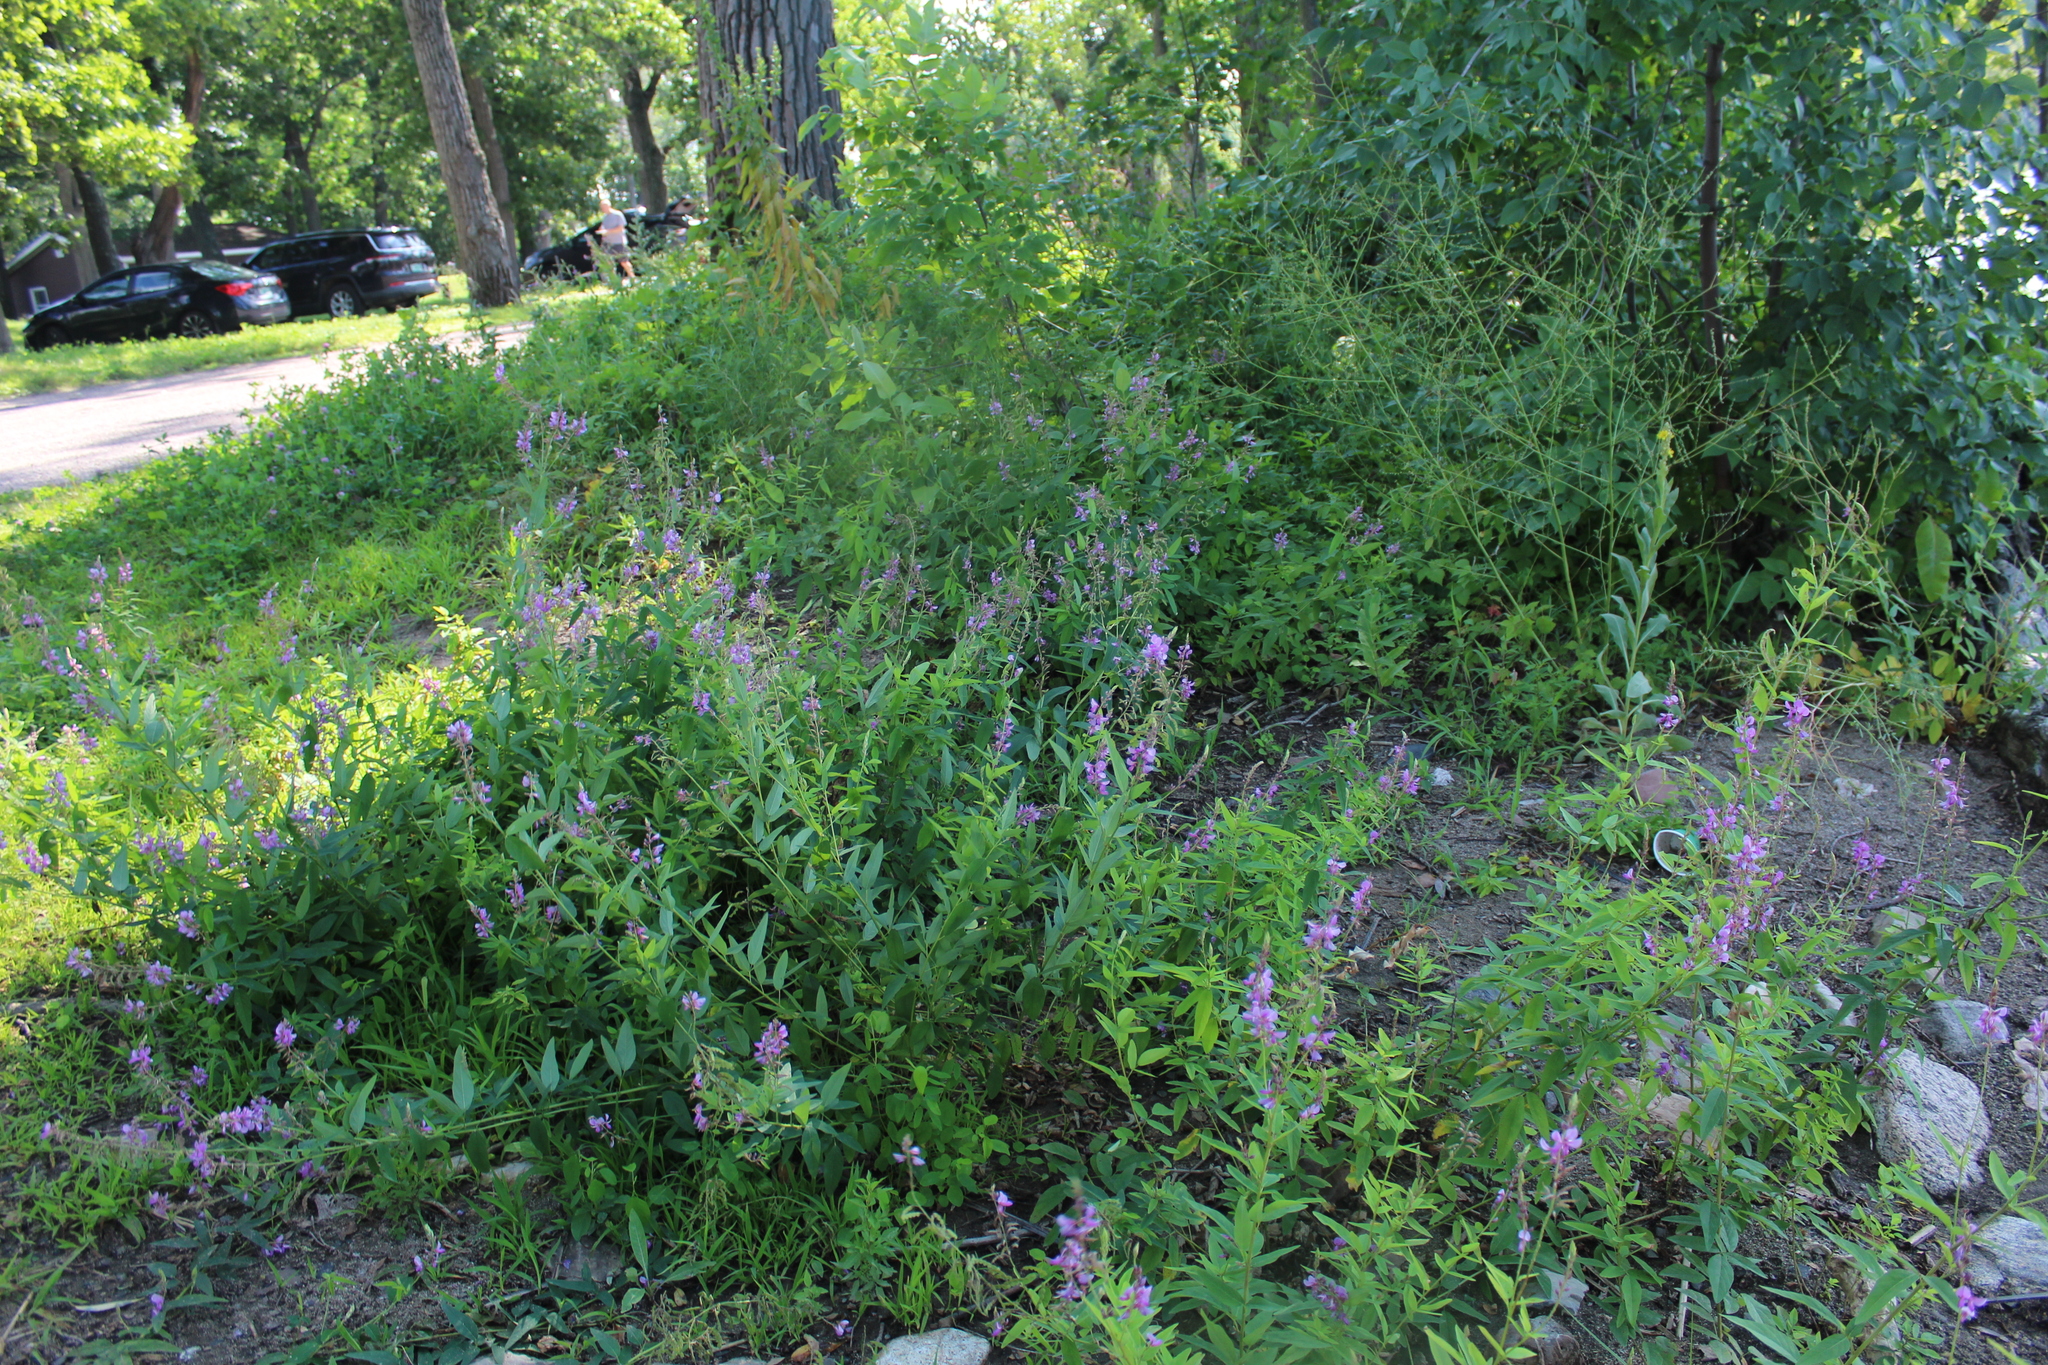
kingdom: Plantae
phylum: Tracheophyta
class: Magnoliopsida
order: Fabales
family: Fabaceae
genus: Desmodium
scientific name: Desmodium canadense
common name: Canada tick-trefoil
